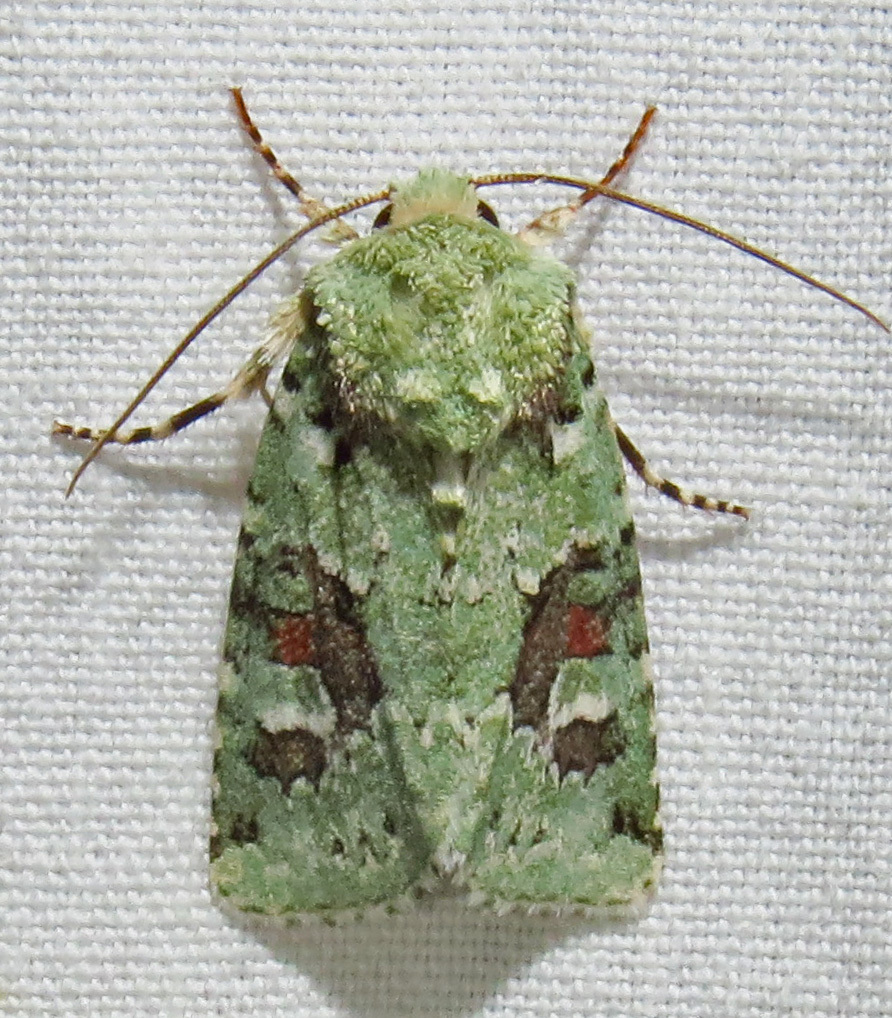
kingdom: Animalia
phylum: Arthropoda
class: Insecta
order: Lepidoptera
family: Noctuidae
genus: Lacinipolia
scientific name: Lacinipolia laudabilis
